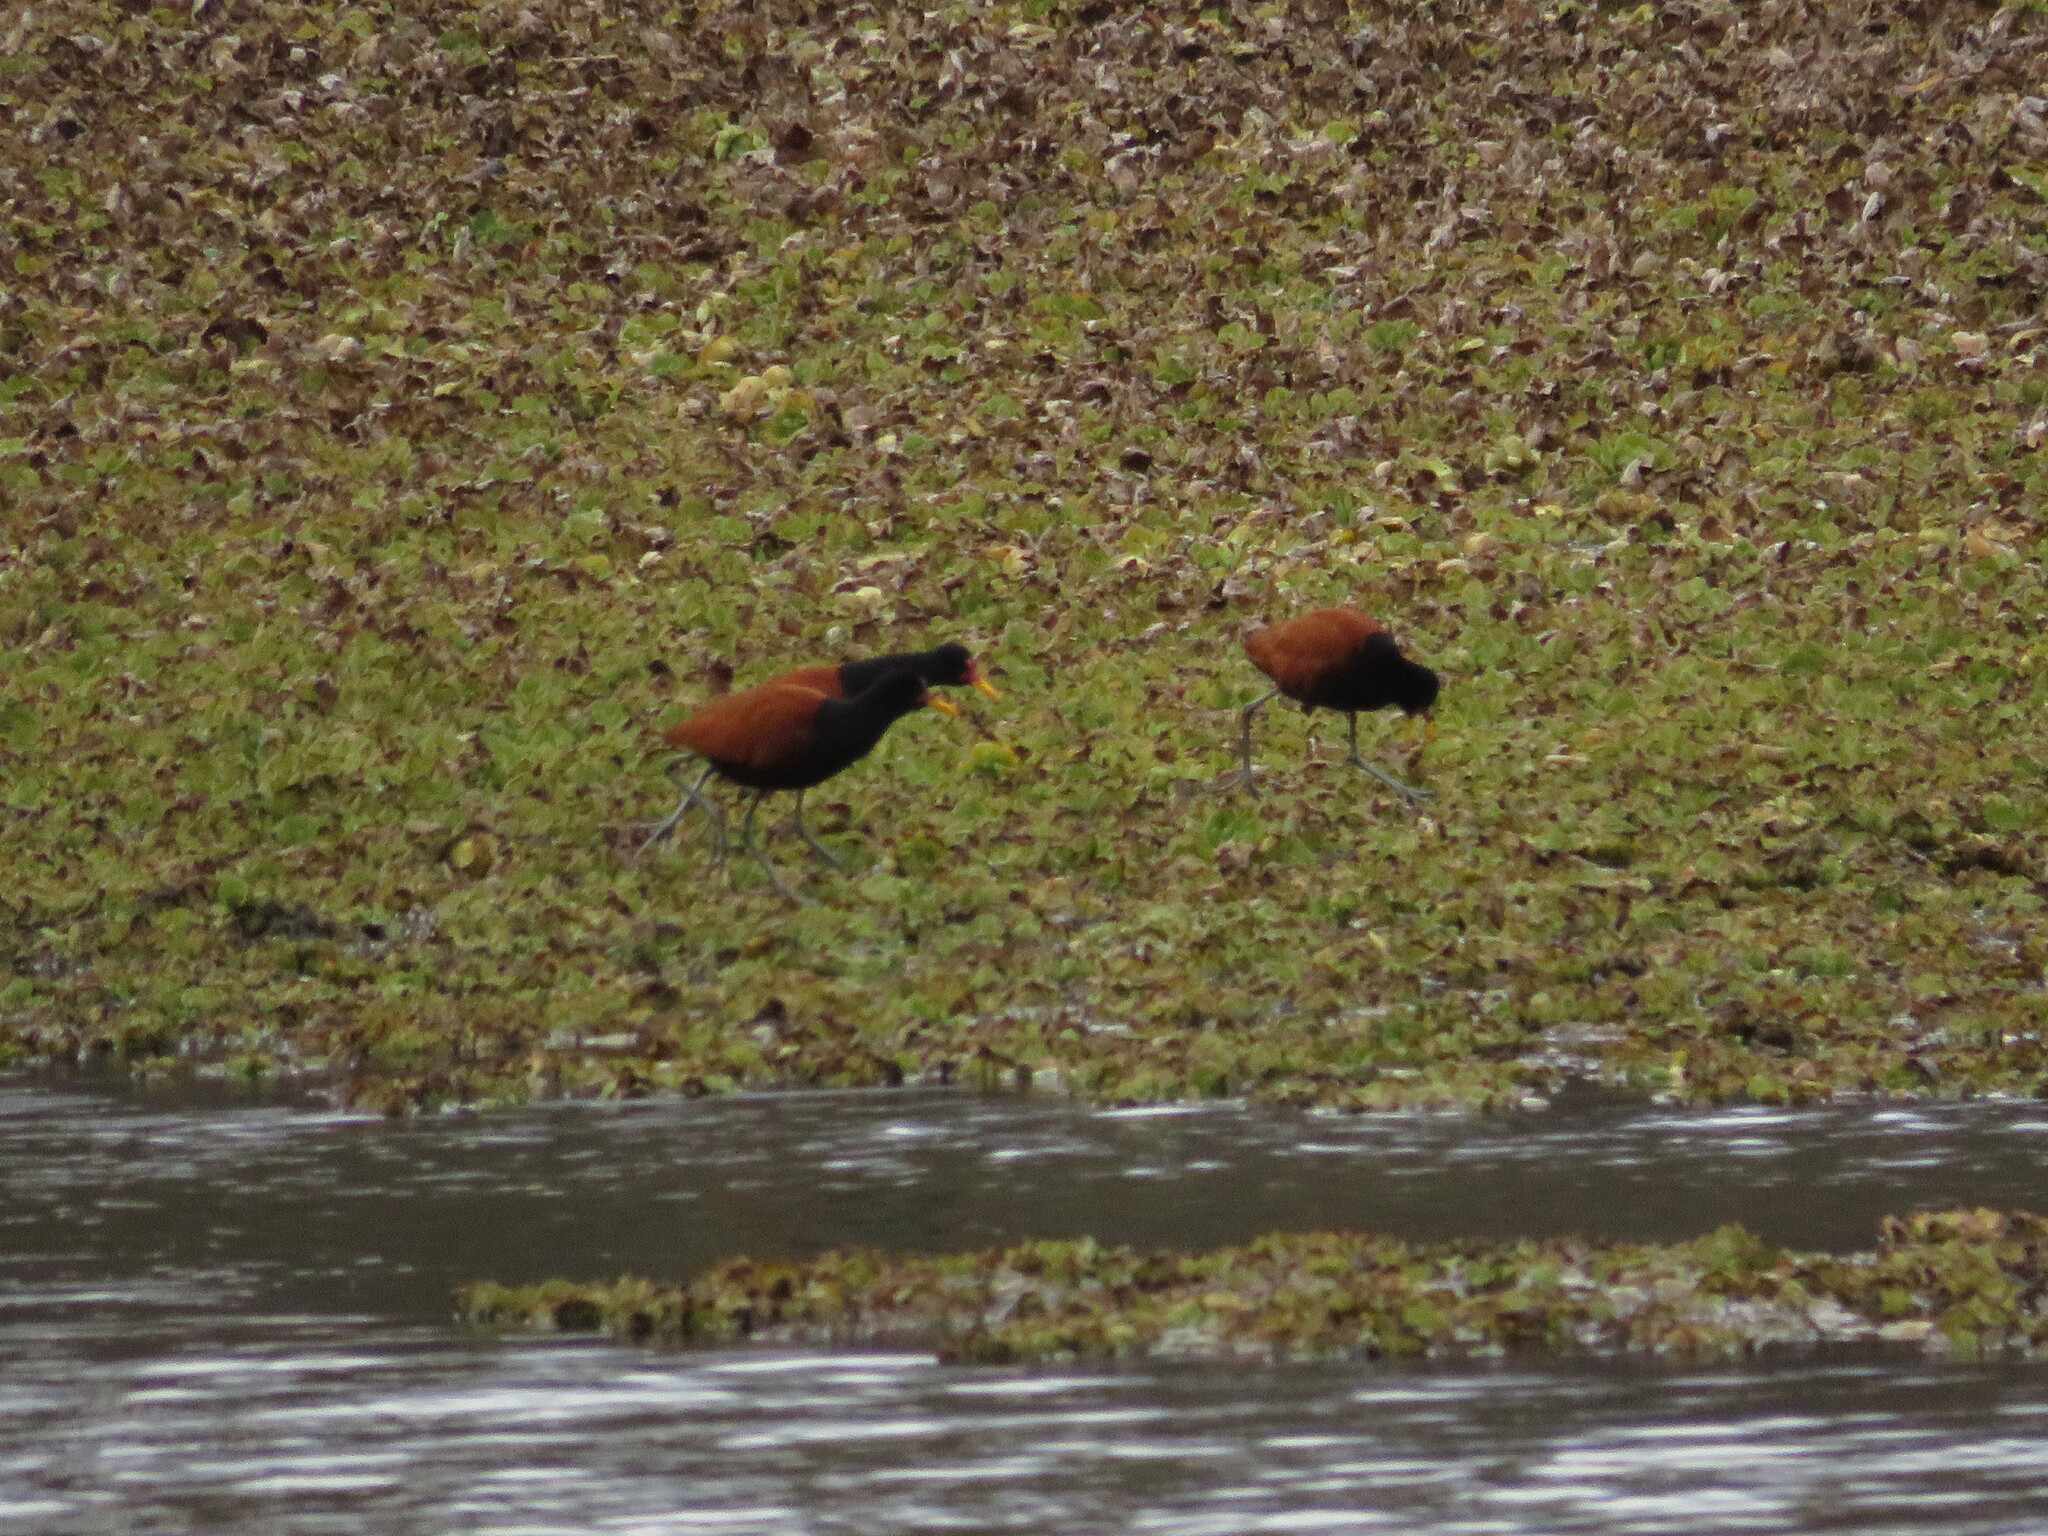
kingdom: Animalia
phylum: Chordata
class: Aves
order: Charadriiformes
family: Jacanidae
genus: Jacana
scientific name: Jacana jacana
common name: Wattled jacana
